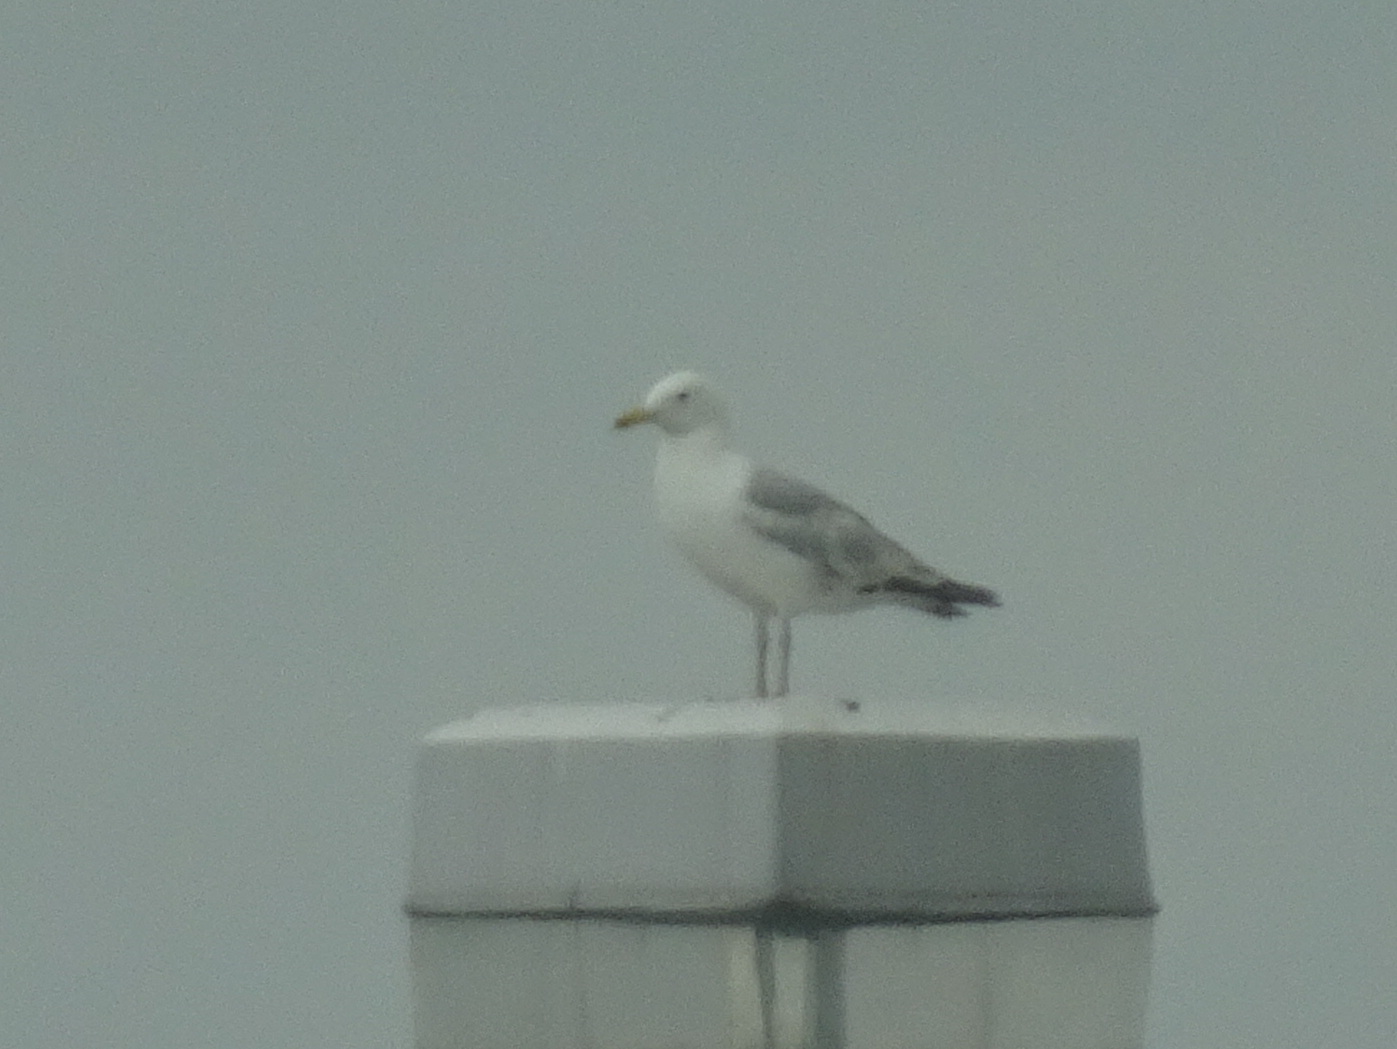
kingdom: Animalia
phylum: Chordata
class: Aves
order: Charadriiformes
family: Laridae
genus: Larus
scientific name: Larus argentatus
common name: Herring gull
